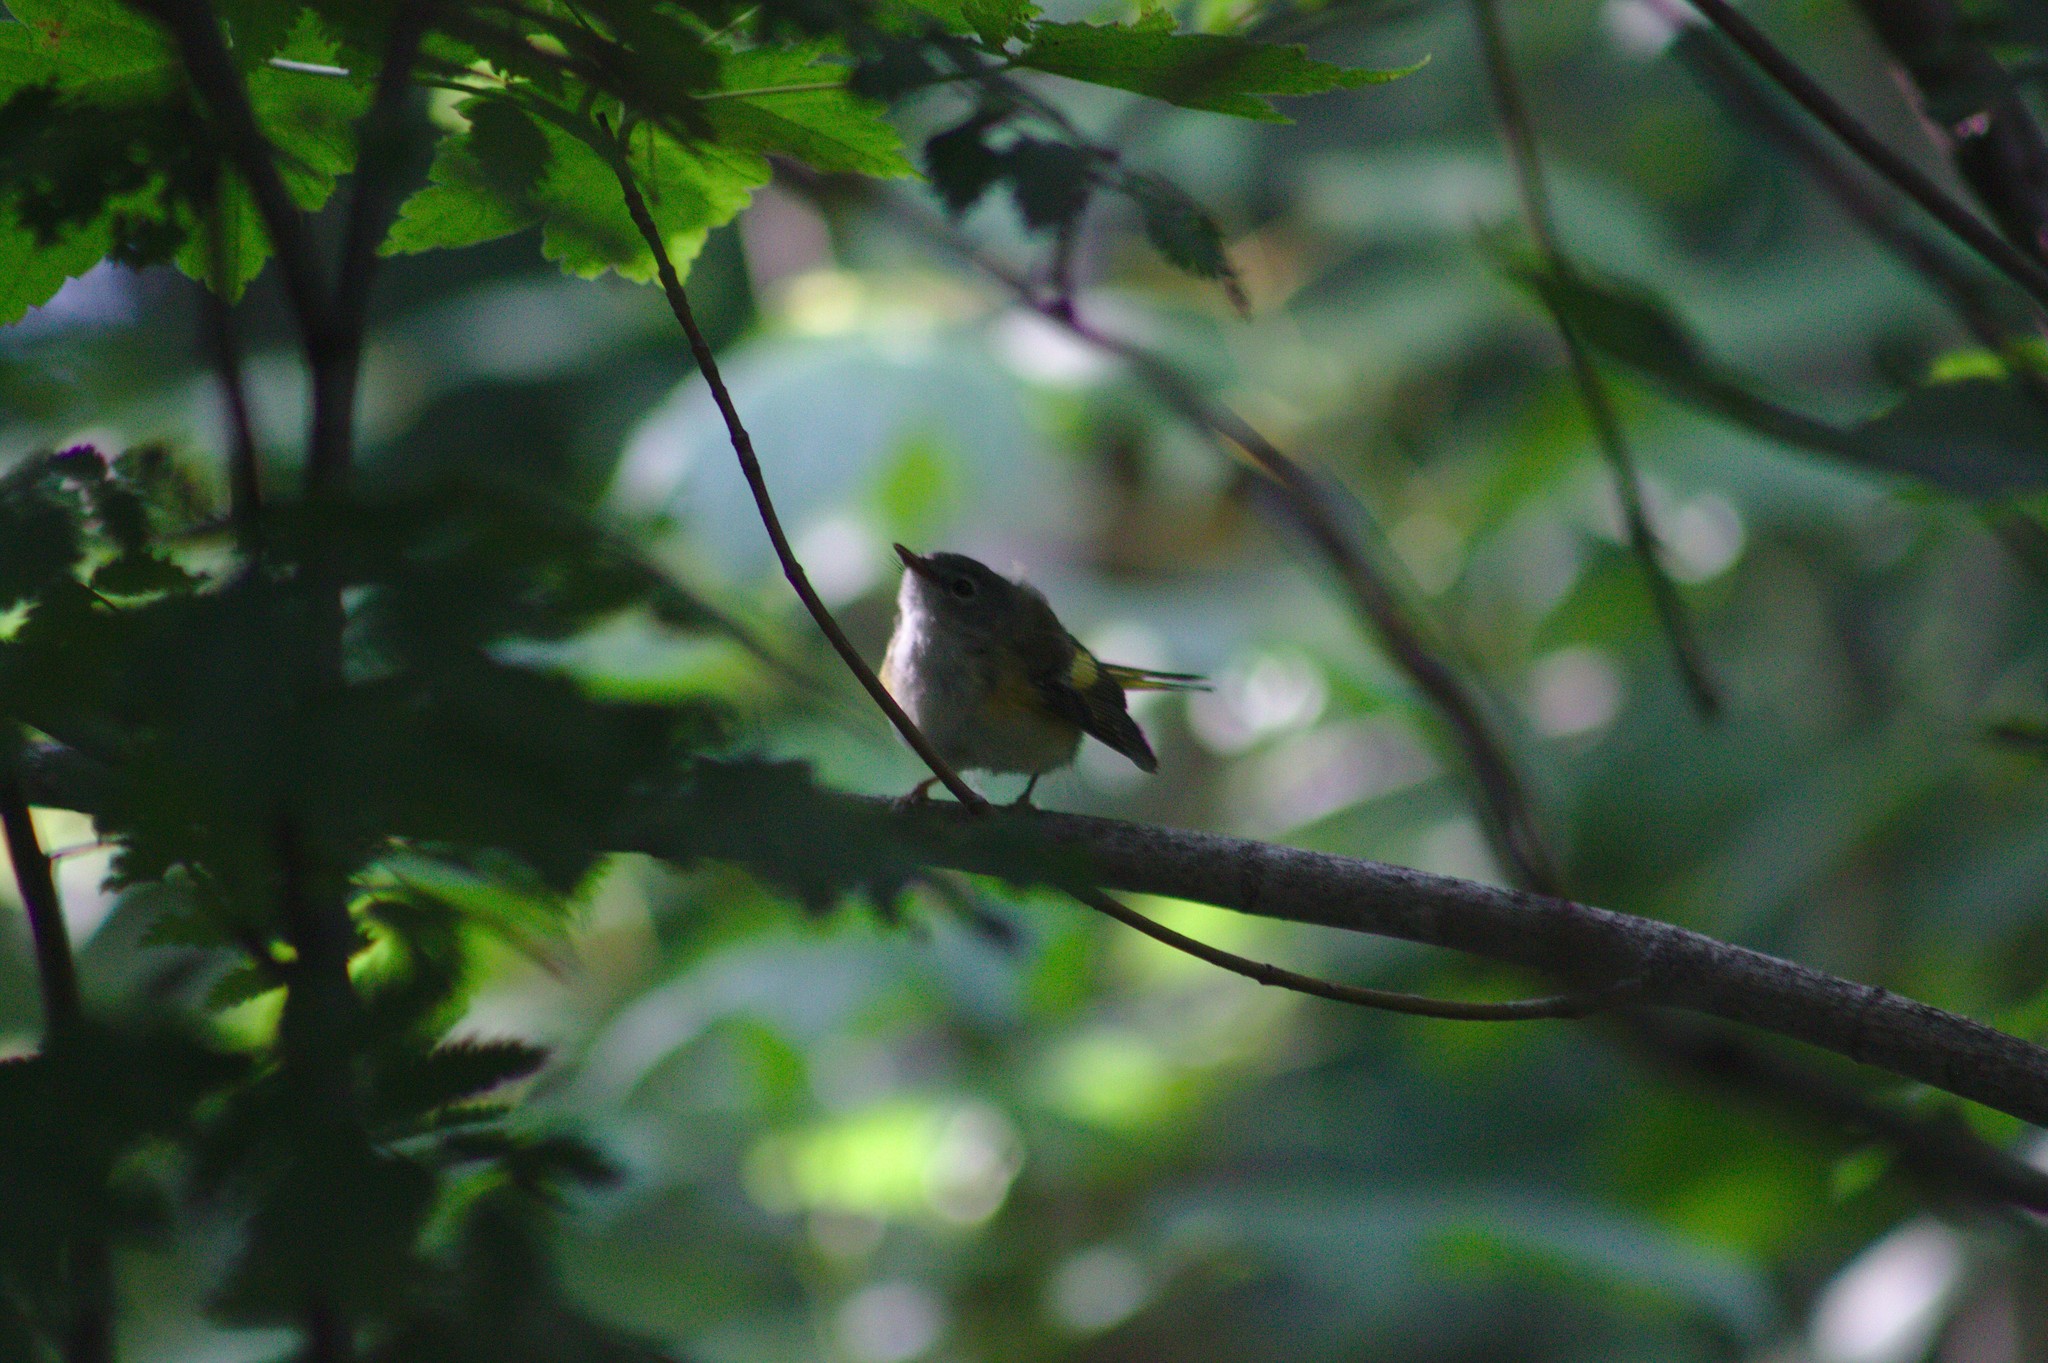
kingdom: Animalia
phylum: Chordata
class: Aves
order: Passeriformes
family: Parulidae
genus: Setophaga
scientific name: Setophaga ruticilla
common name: American redstart
